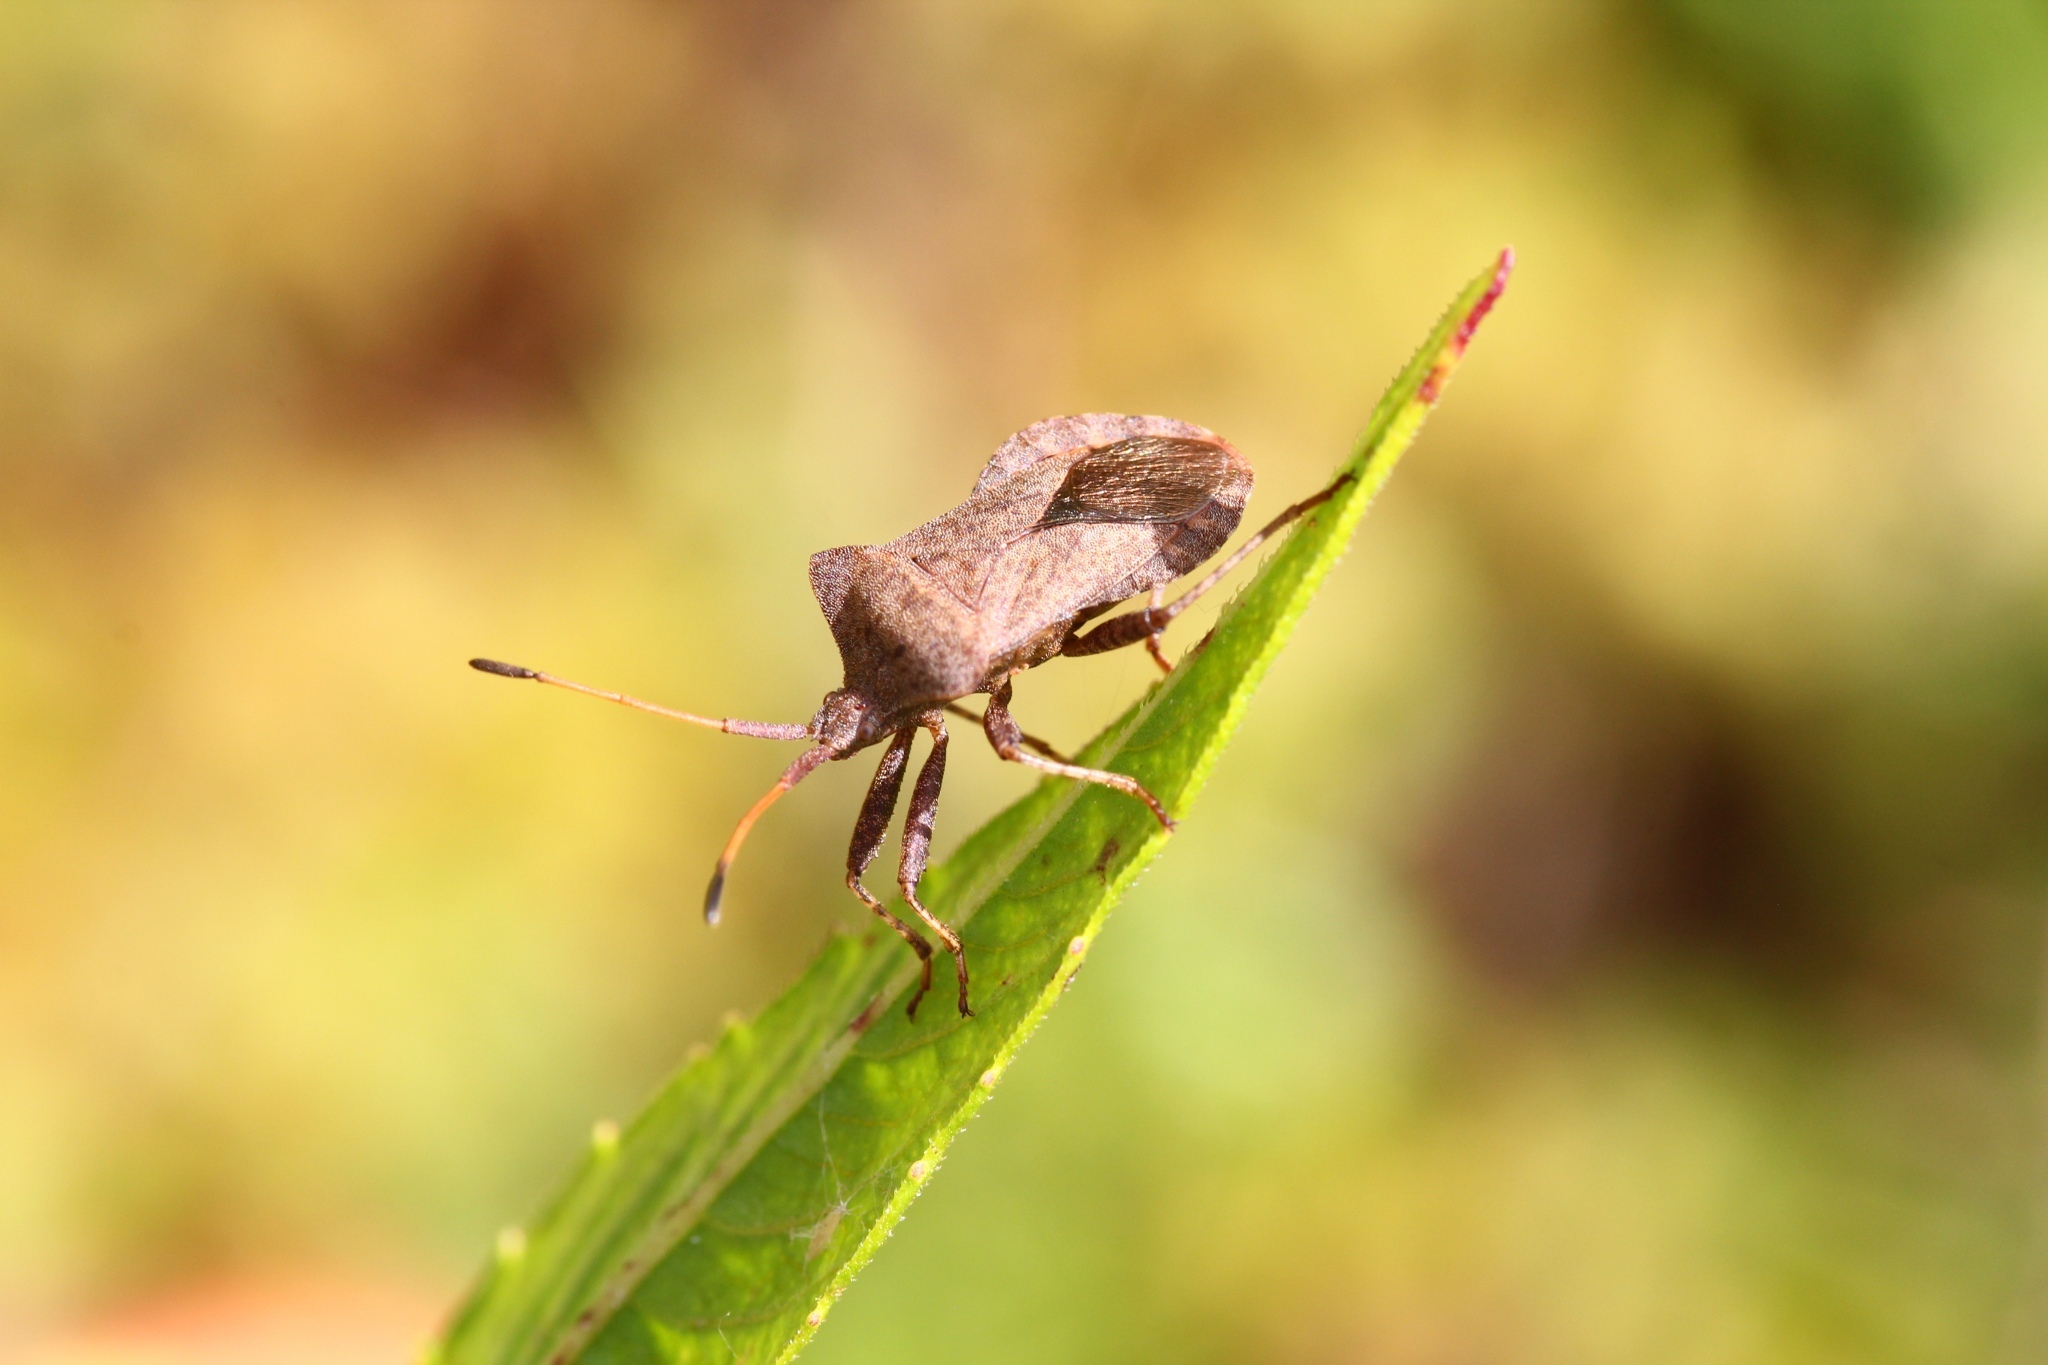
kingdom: Animalia
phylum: Arthropoda
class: Insecta
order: Hemiptera
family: Coreidae
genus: Coreus
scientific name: Coreus marginatus
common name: Dock bug
